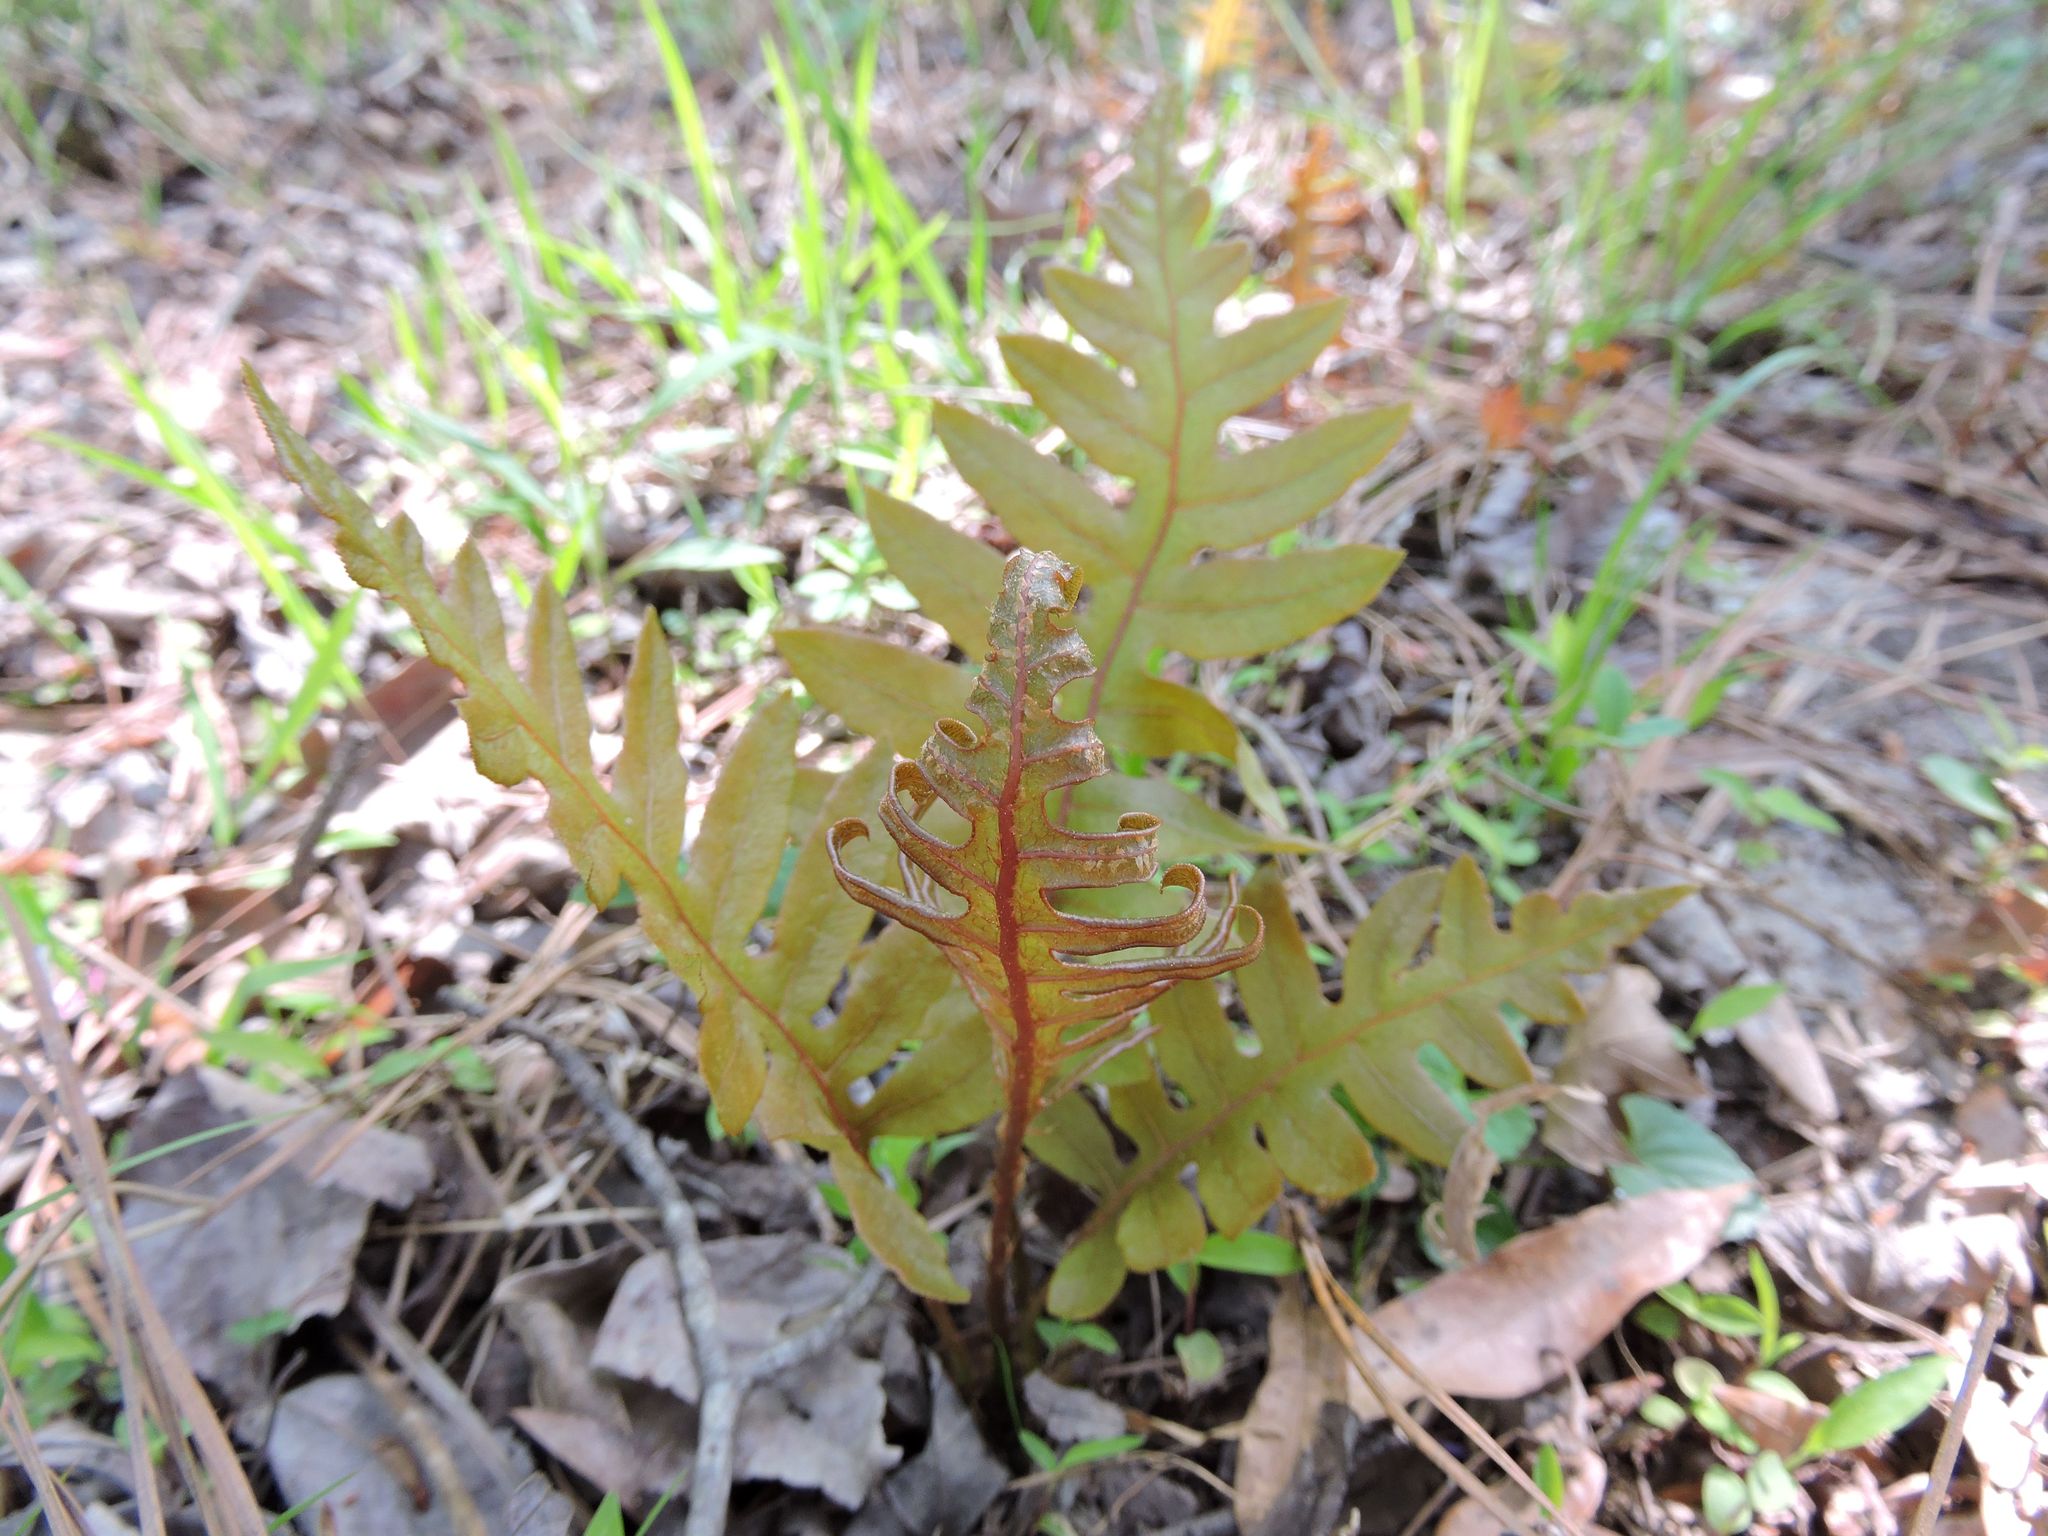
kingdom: Plantae
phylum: Tracheophyta
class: Polypodiopsida
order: Polypodiales
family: Blechnaceae
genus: Lorinseria
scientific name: Lorinseria areolata
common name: Dwarf chain fern
